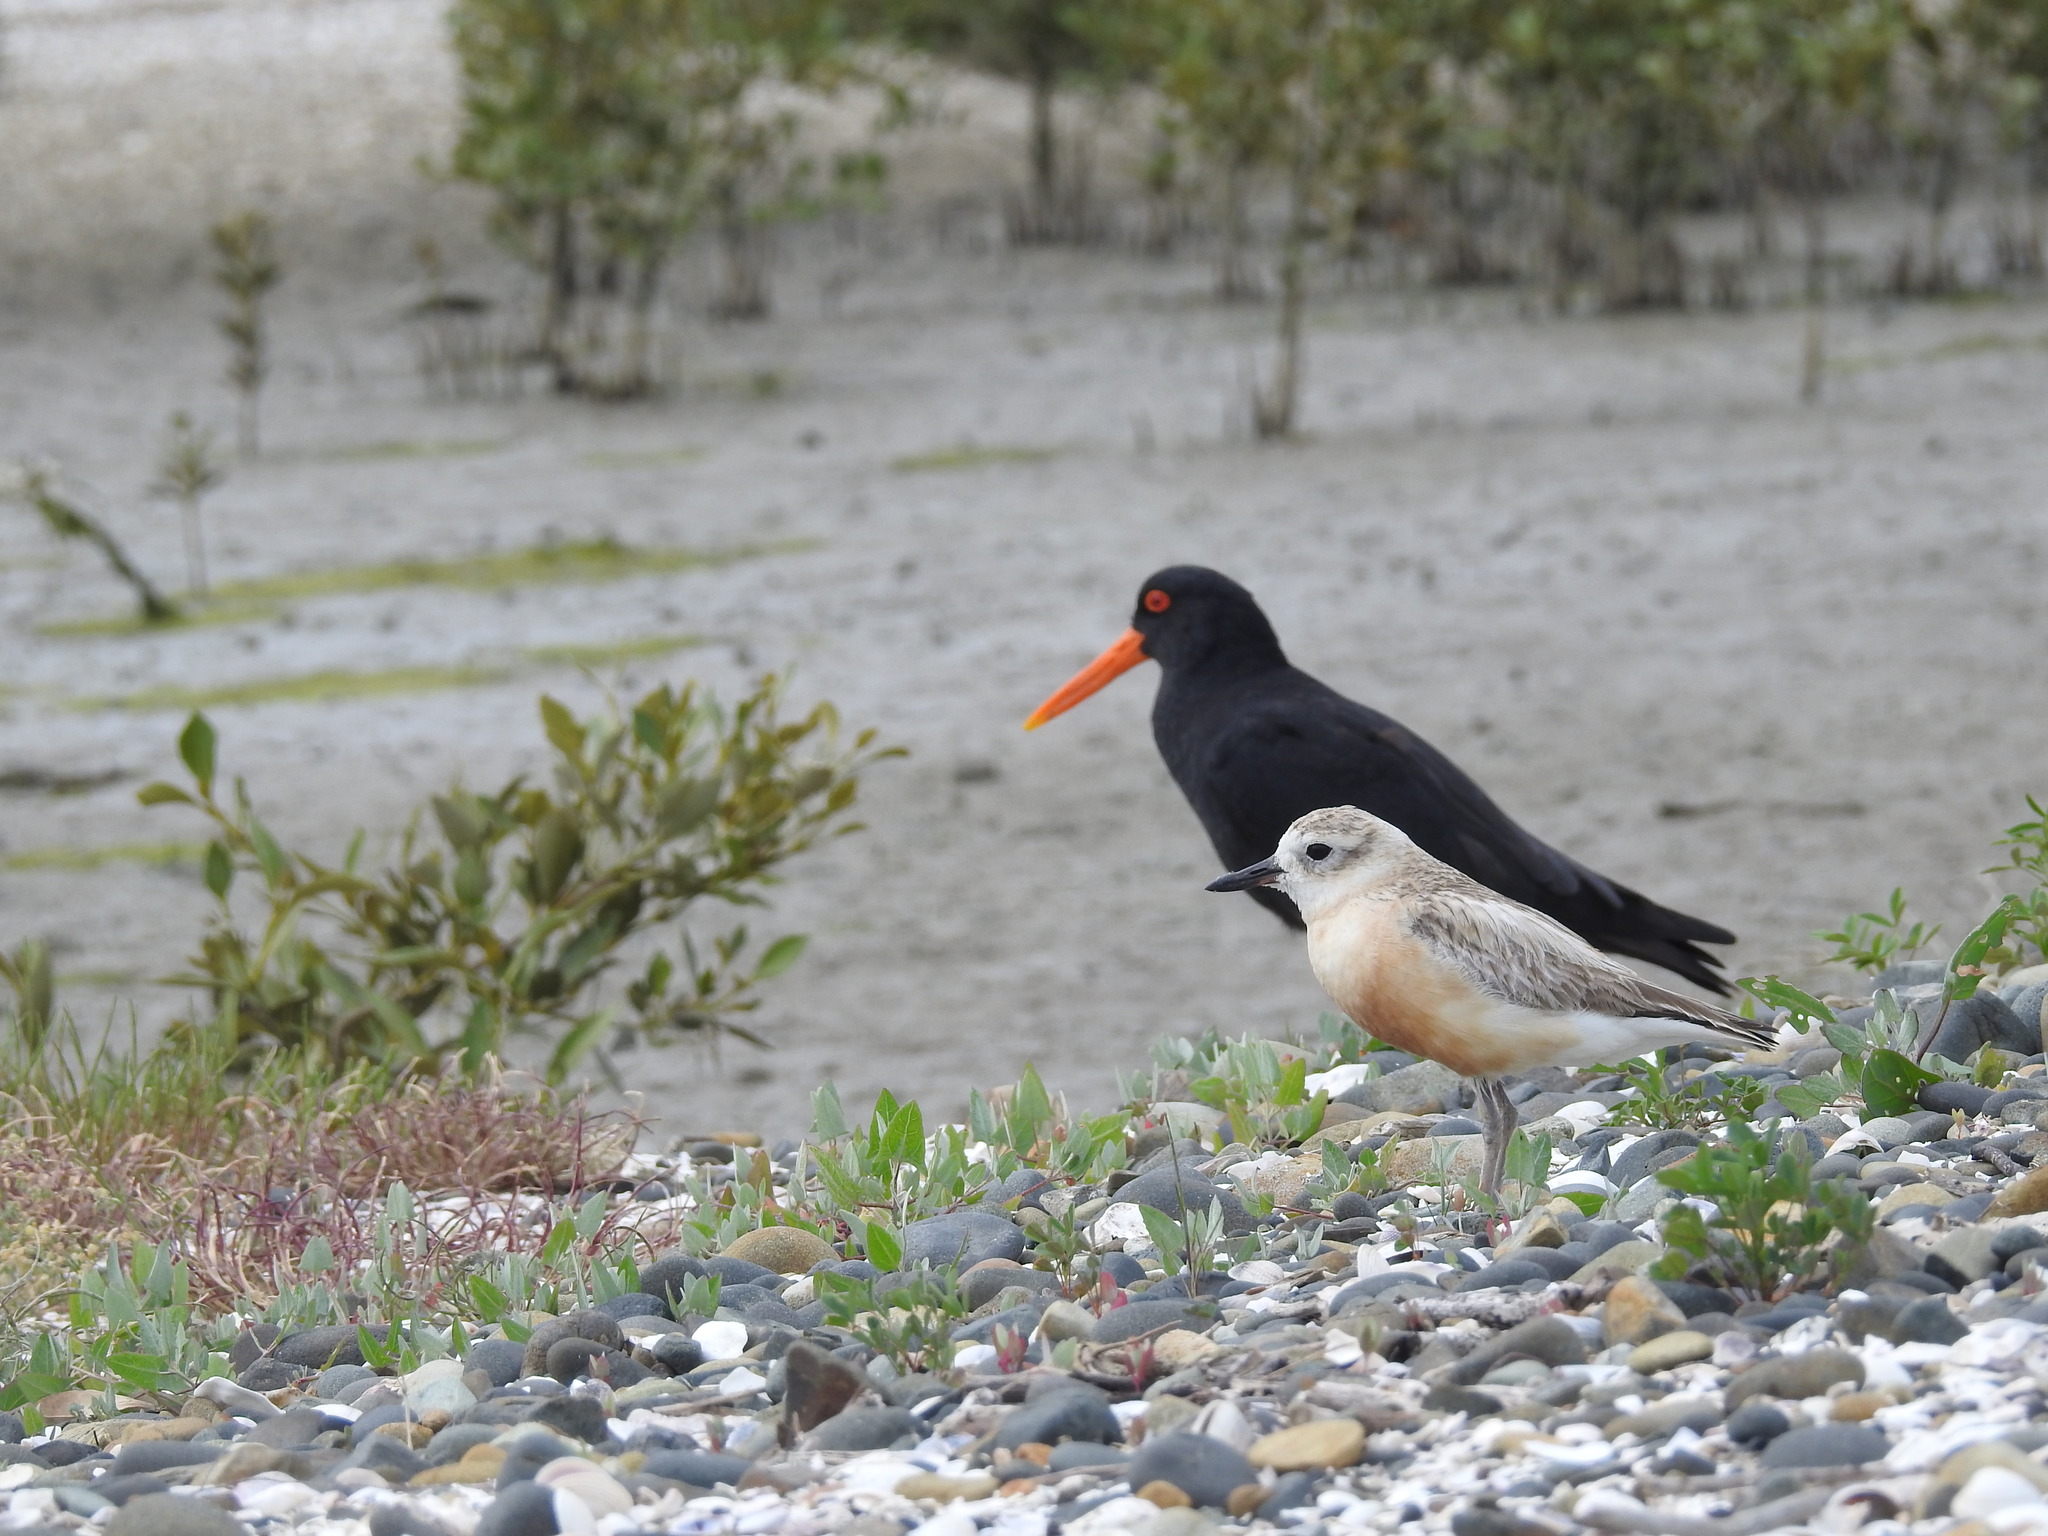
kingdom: Animalia
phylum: Chordata
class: Aves
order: Charadriiformes
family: Charadriidae
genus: Anarhynchus
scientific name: Anarhynchus
